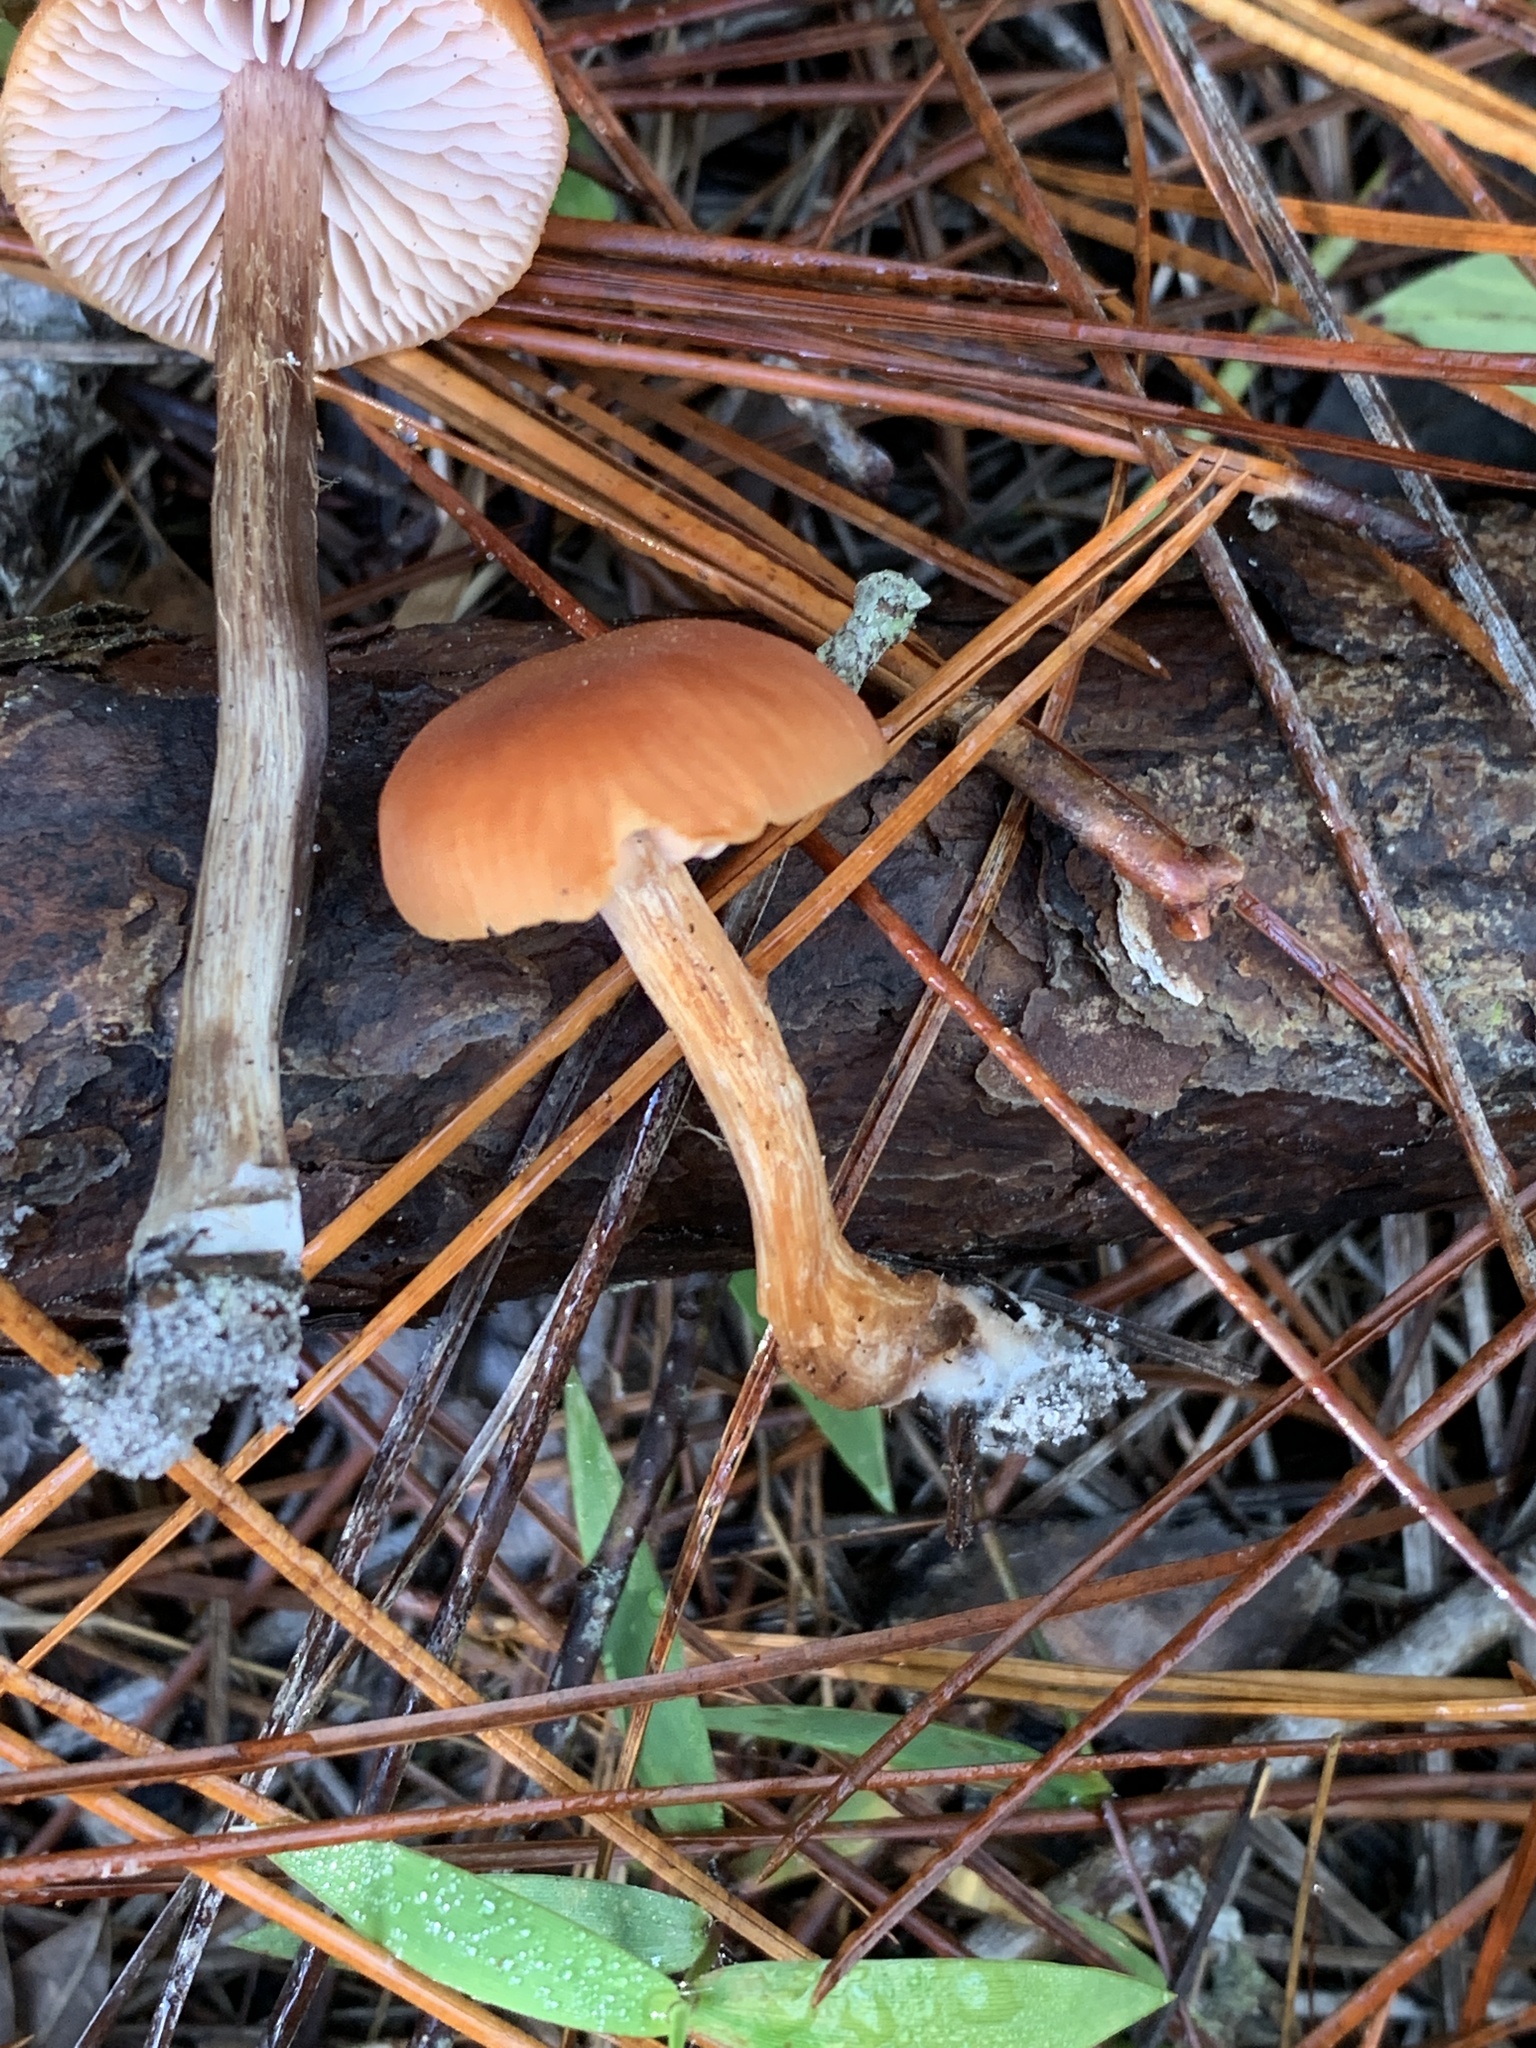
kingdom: Fungi
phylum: Basidiomycota
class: Agaricomycetes
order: Agaricales
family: Hydnangiaceae
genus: Laccaria
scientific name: Laccaria laccata
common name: Deceiver
